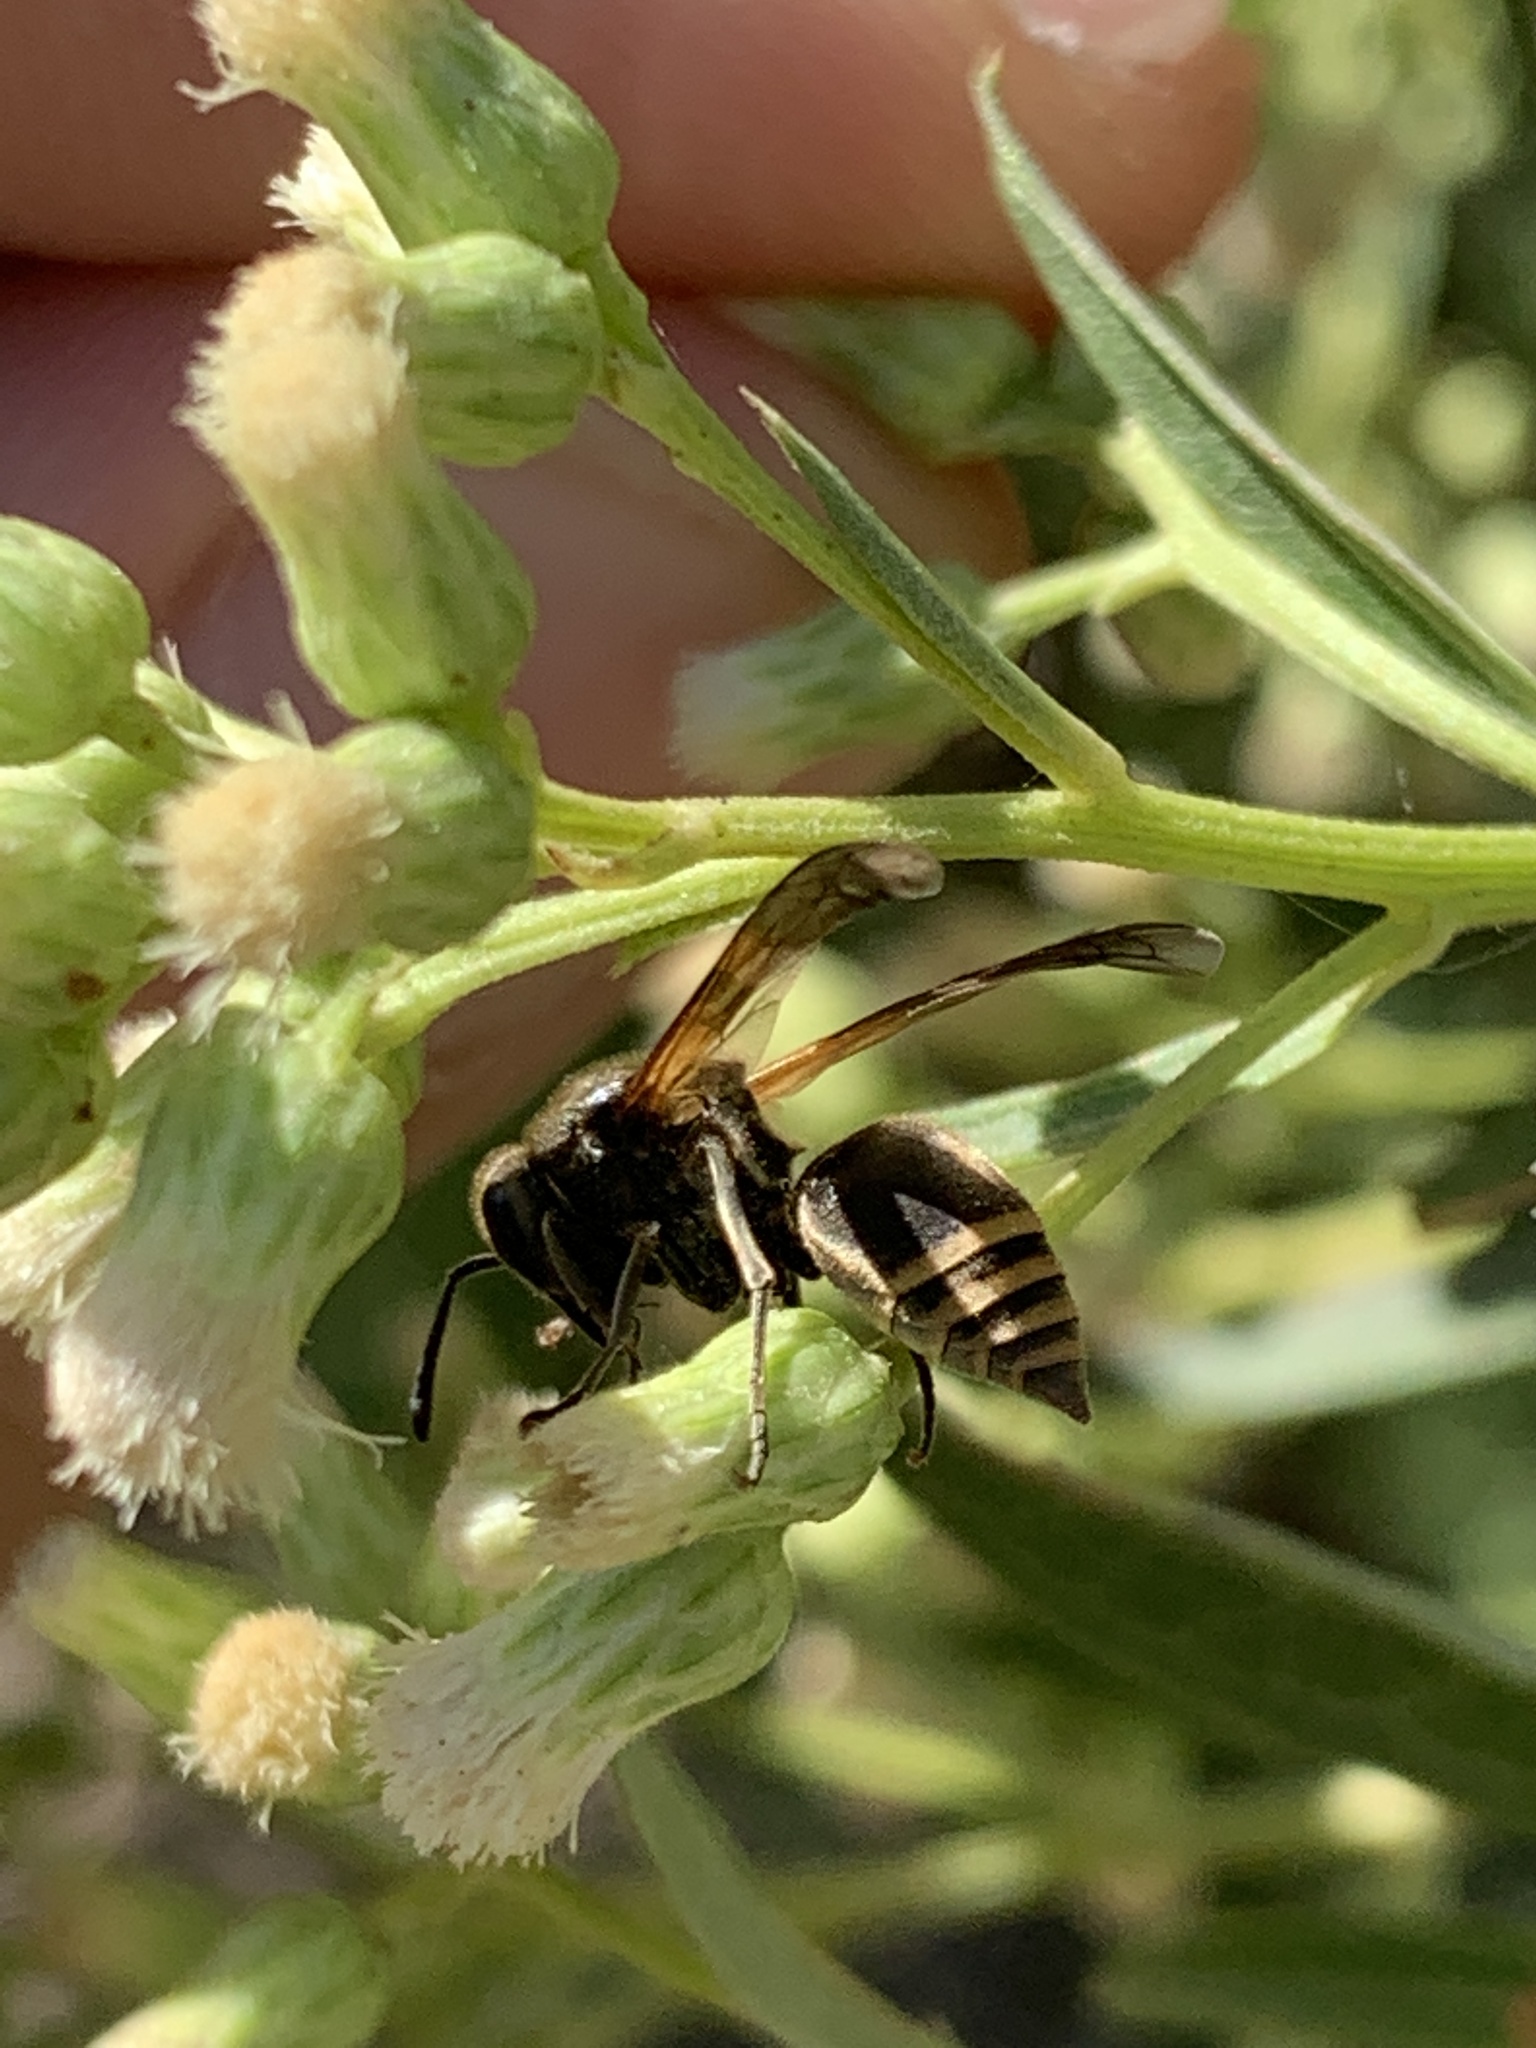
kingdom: Animalia
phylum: Arthropoda
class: Insecta
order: Hymenoptera
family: Vespidae
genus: Brachygastra
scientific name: Brachygastra lecheguana
